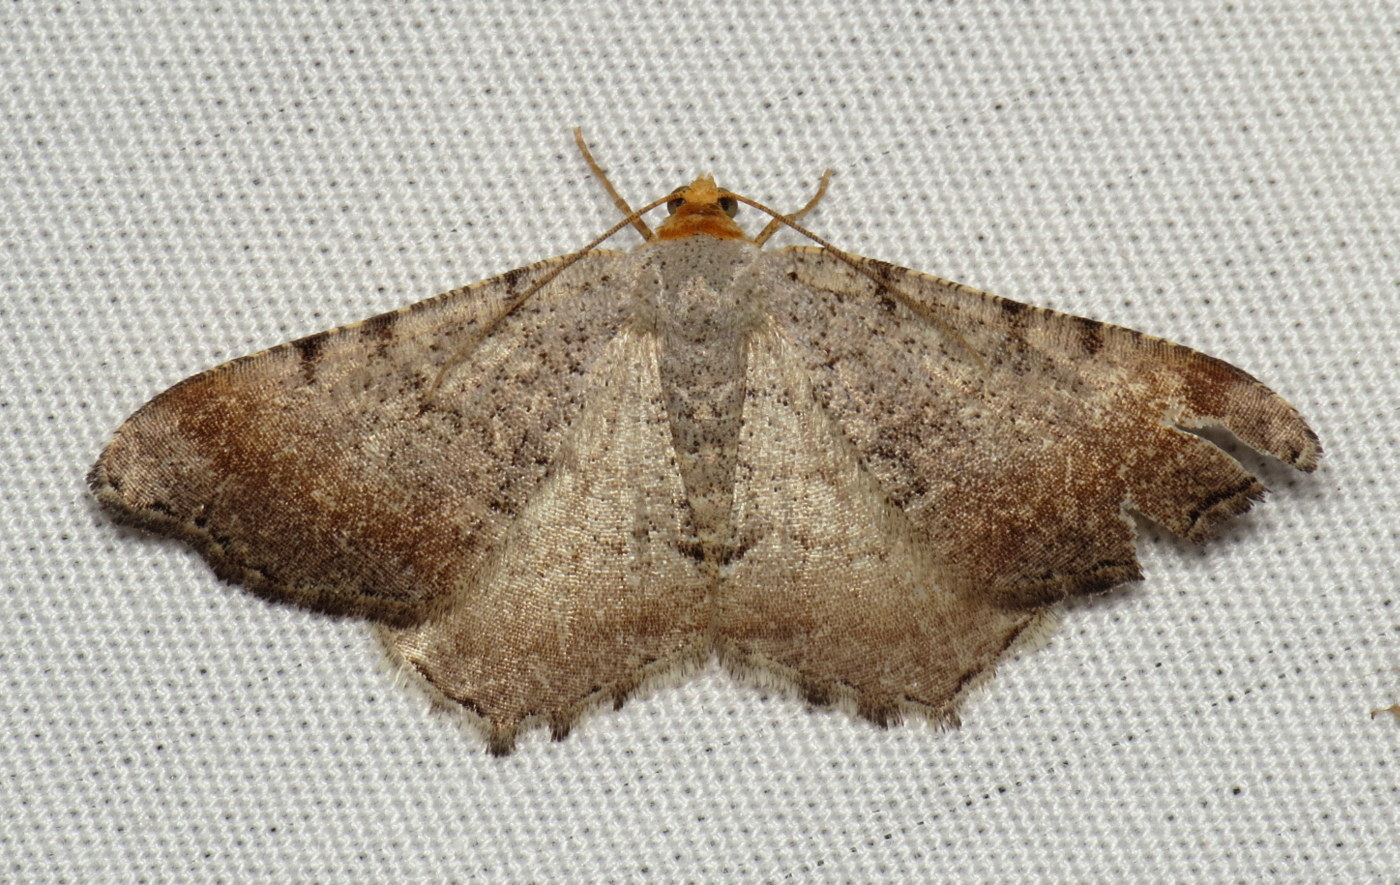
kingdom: Animalia
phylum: Arthropoda
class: Insecta
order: Lepidoptera
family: Geometridae
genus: Macaria
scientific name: Macaria minorata
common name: Minor angle moth
